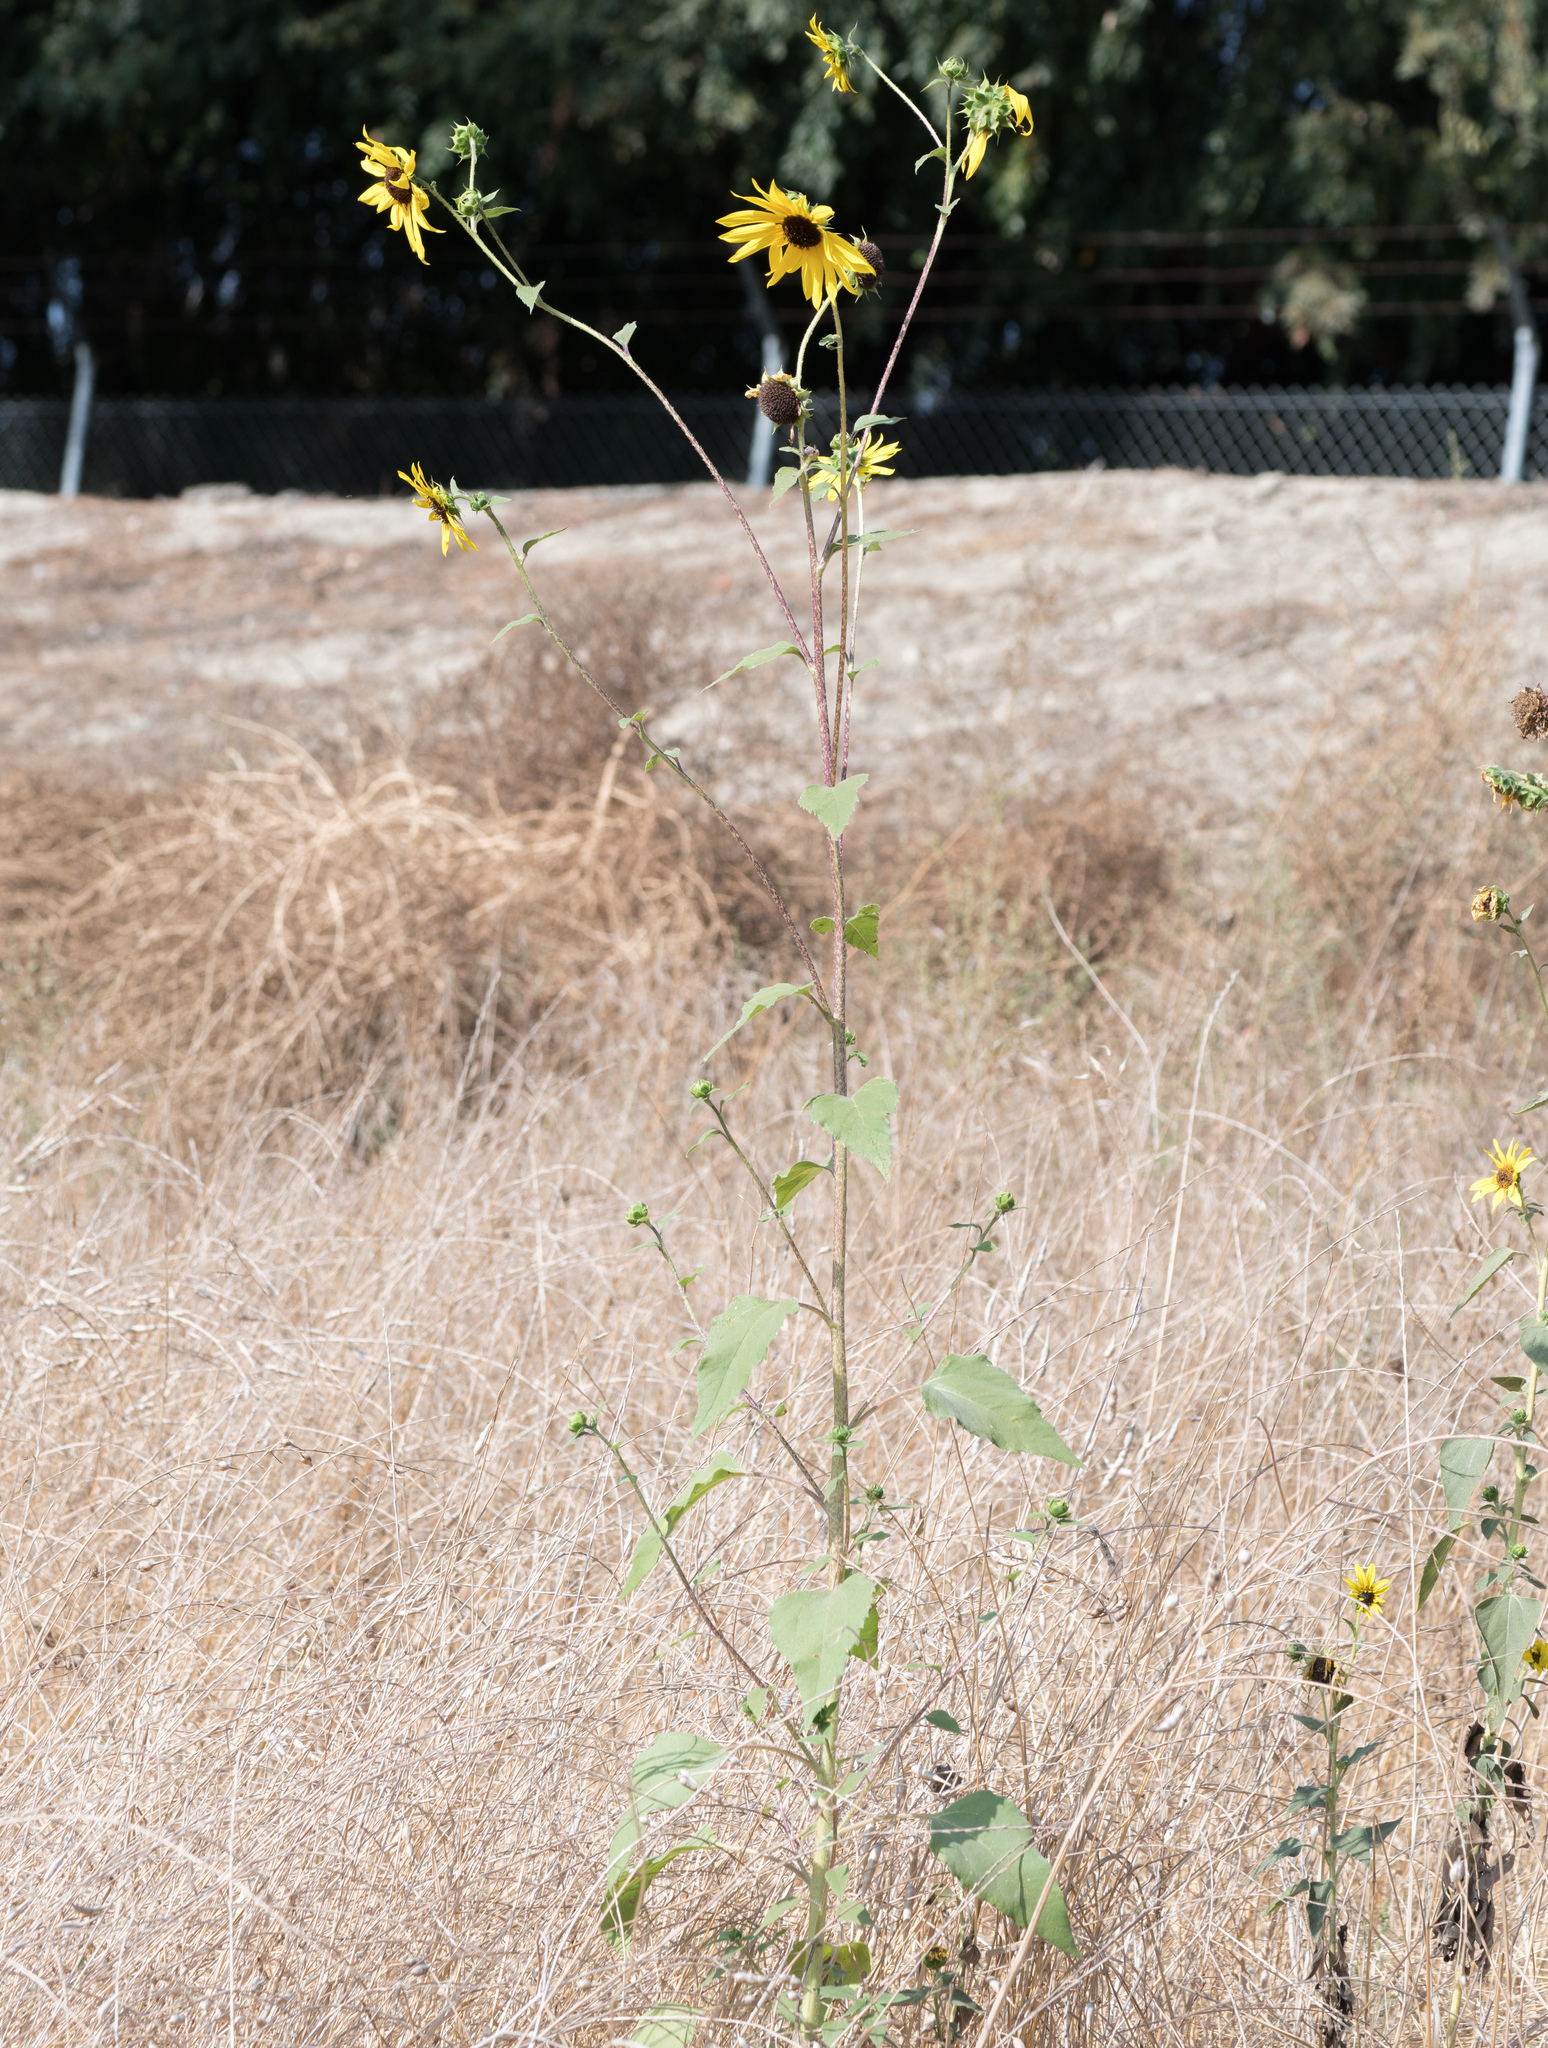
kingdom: Plantae
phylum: Tracheophyta
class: Magnoliopsida
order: Asterales
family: Asteraceae
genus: Helianthus
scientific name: Helianthus annuus
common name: Sunflower
